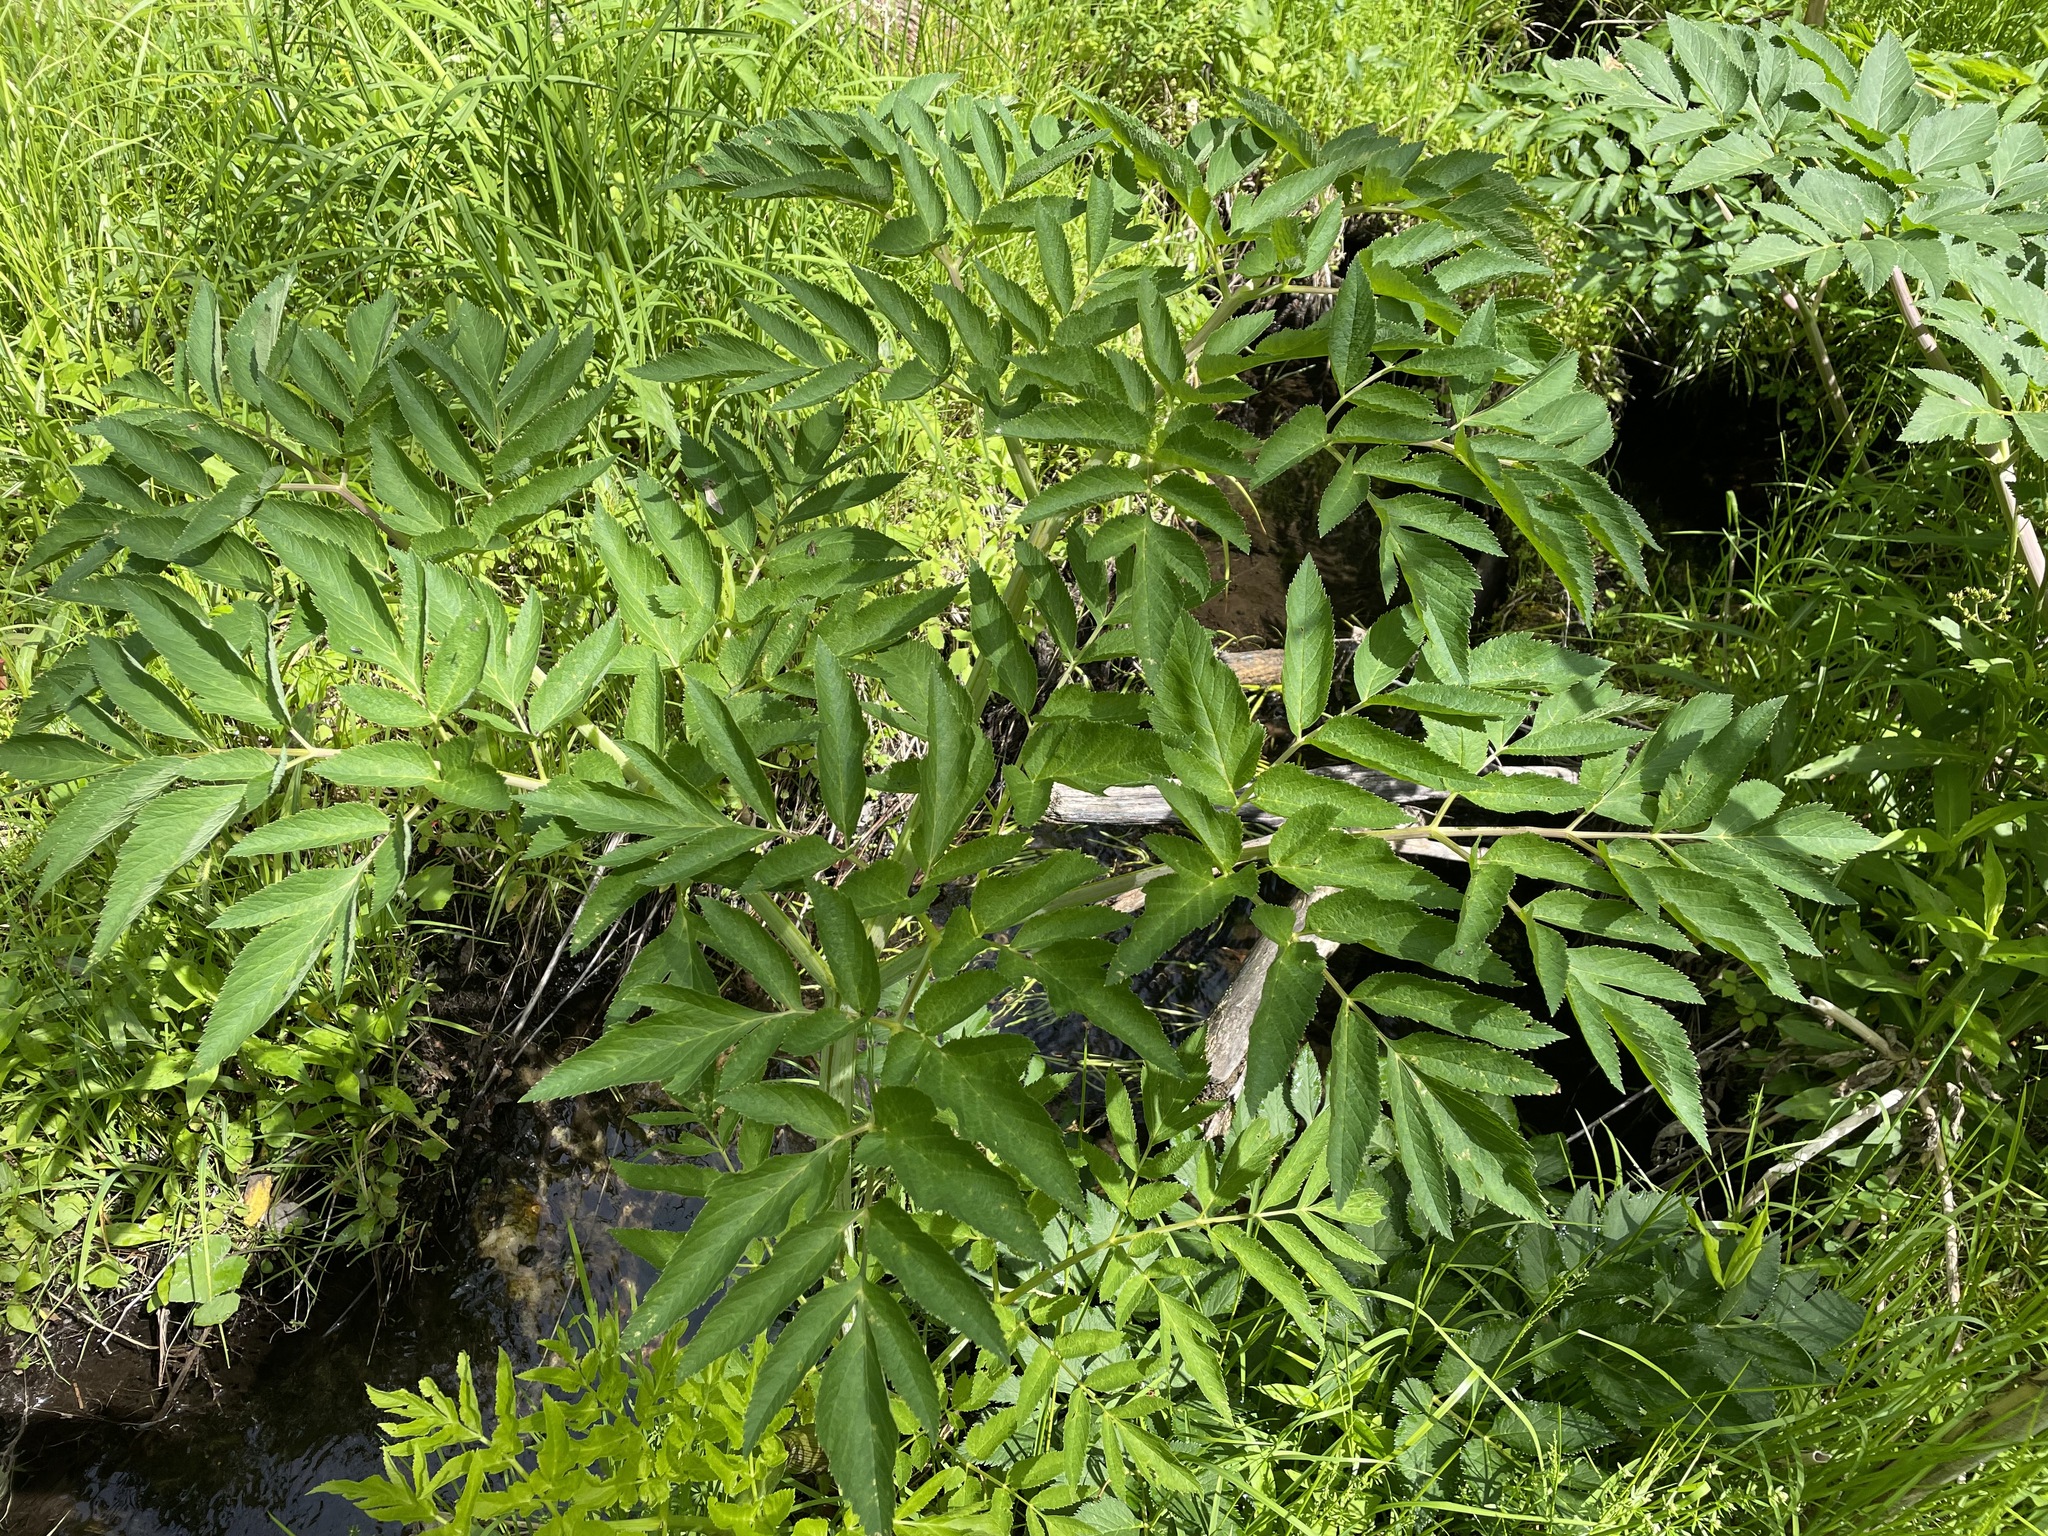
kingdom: Plantae
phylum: Tracheophyta
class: Magnoliopsida
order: Apiales
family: Apiaceae
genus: Angelica
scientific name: Angelica atropurpurea
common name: Great angelica
